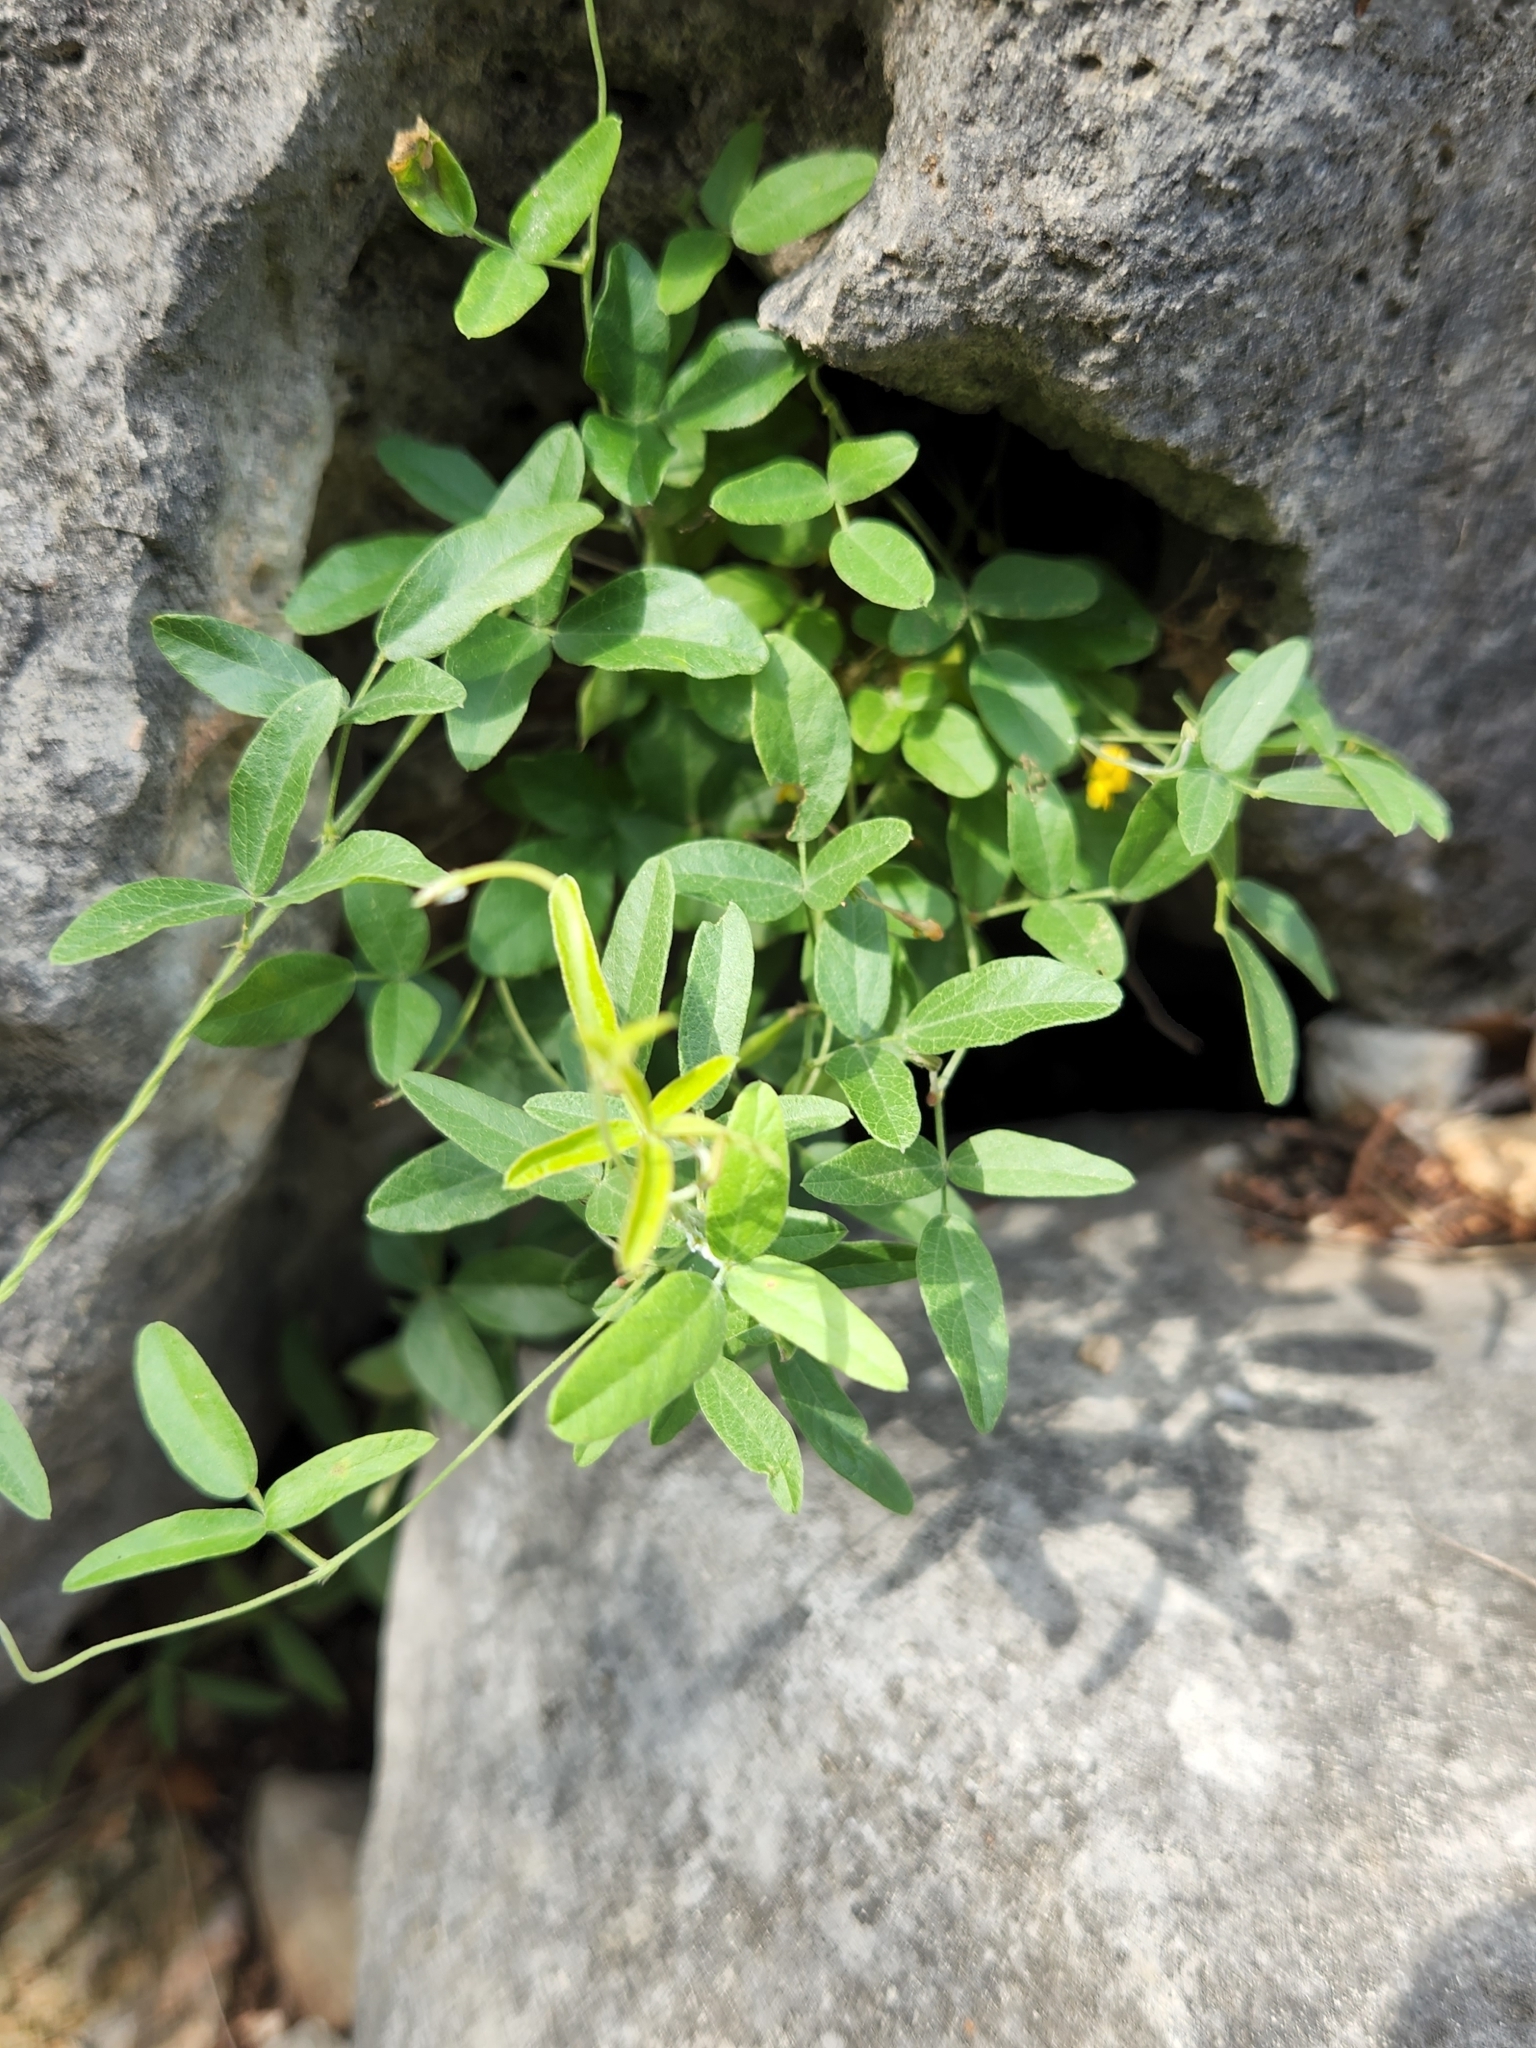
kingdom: Plantae
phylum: Tracheophyta
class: Magnoliopsida
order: Fabales
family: Fabaceae
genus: Rhynchosia
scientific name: Rhynchosia senna
